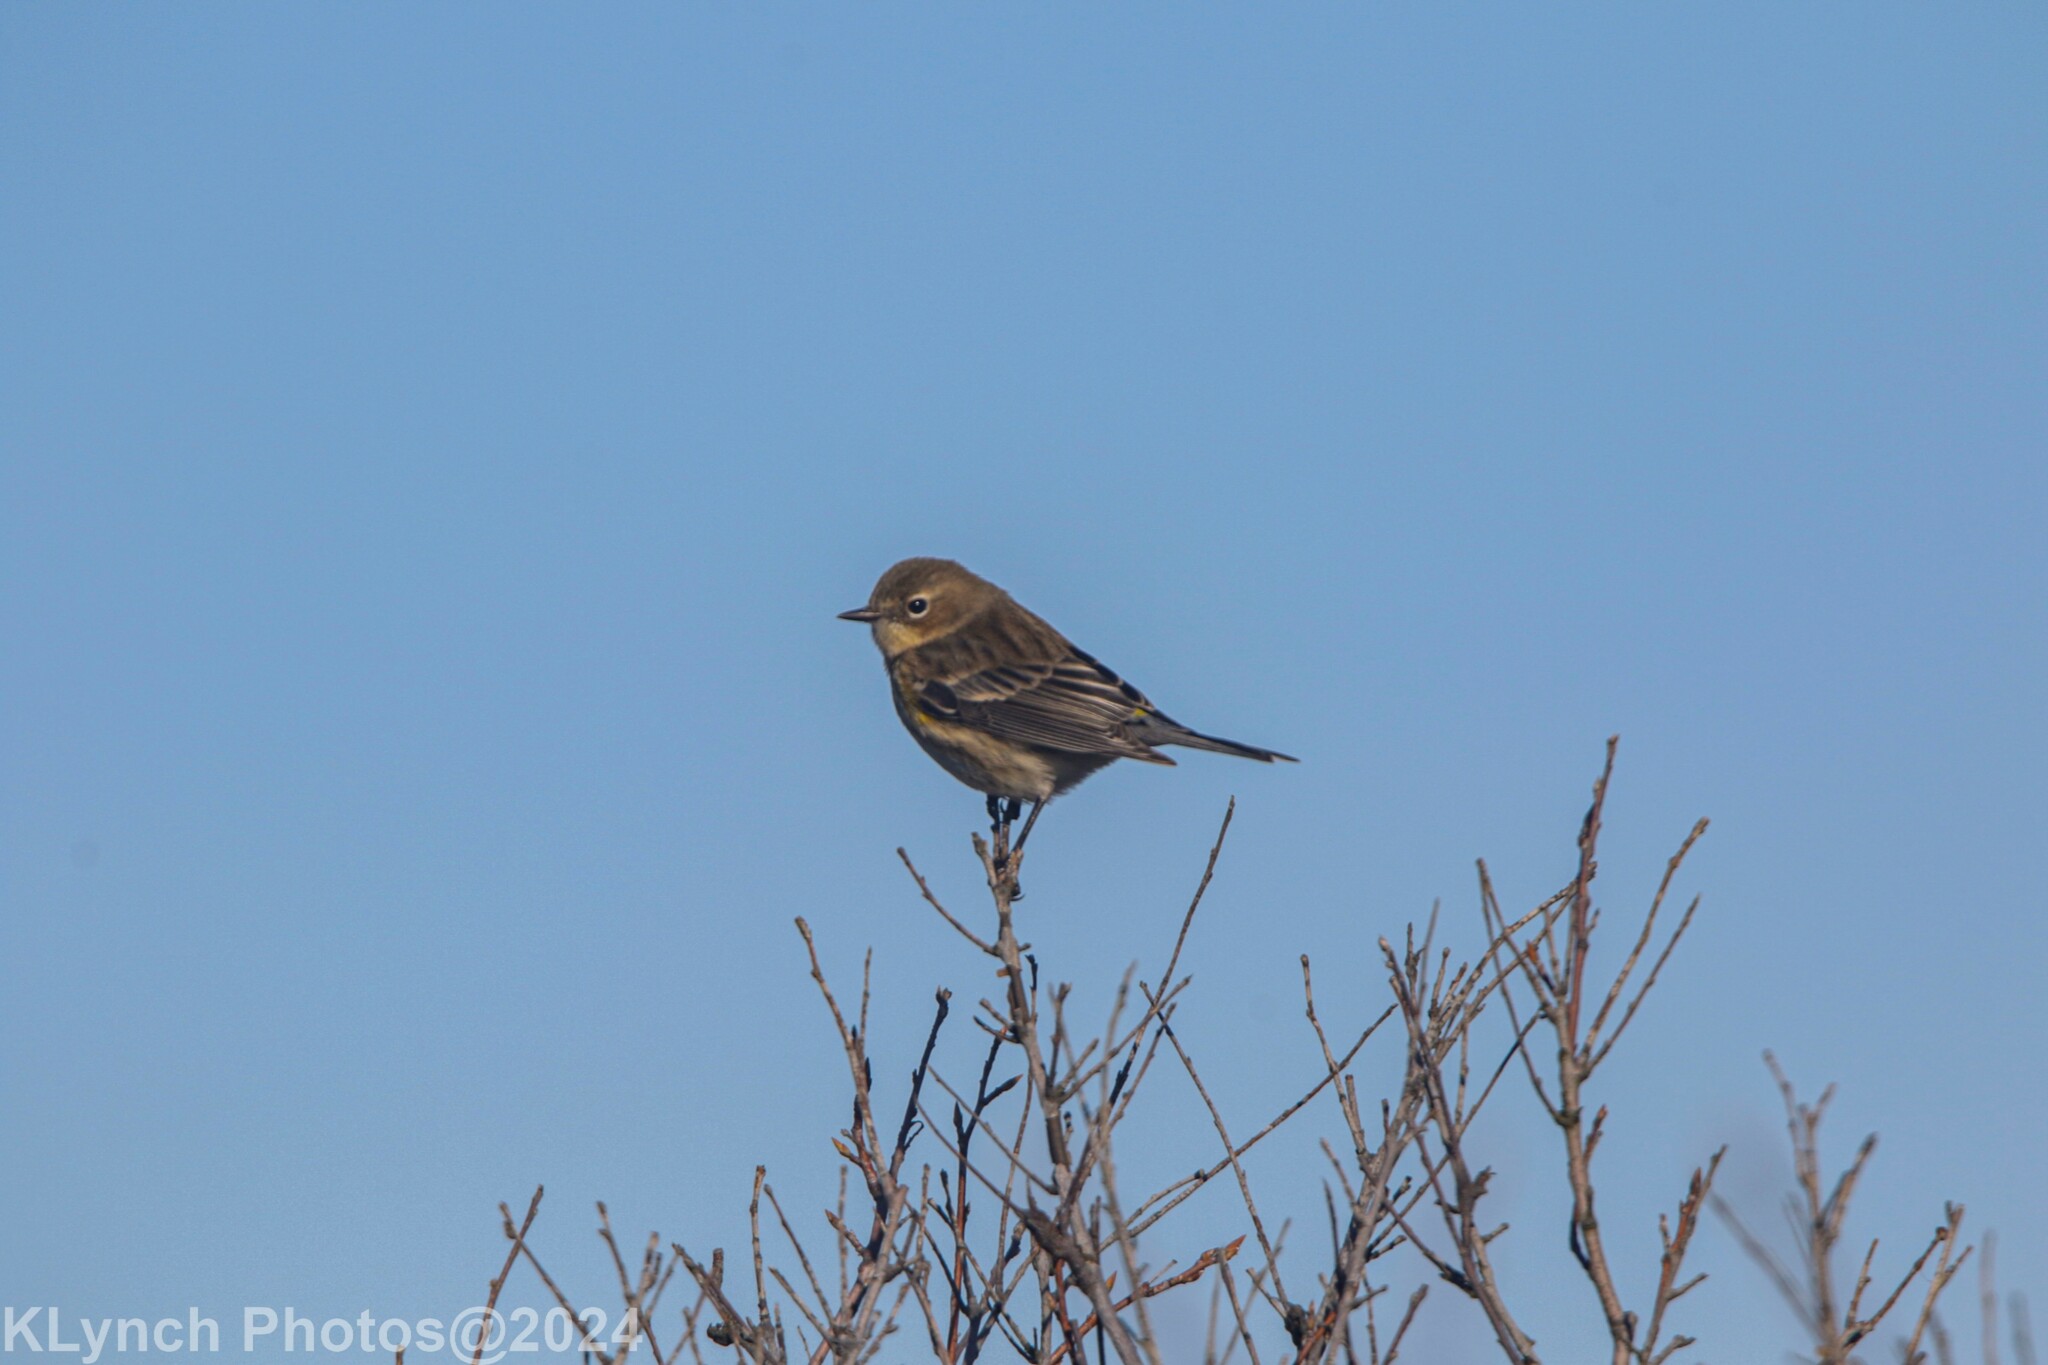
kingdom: Animalia
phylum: Chordata
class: Aves
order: Passeriformes
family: Parulidae
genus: Setophaga
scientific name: Setophaga coronata
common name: Myrtle warbler
